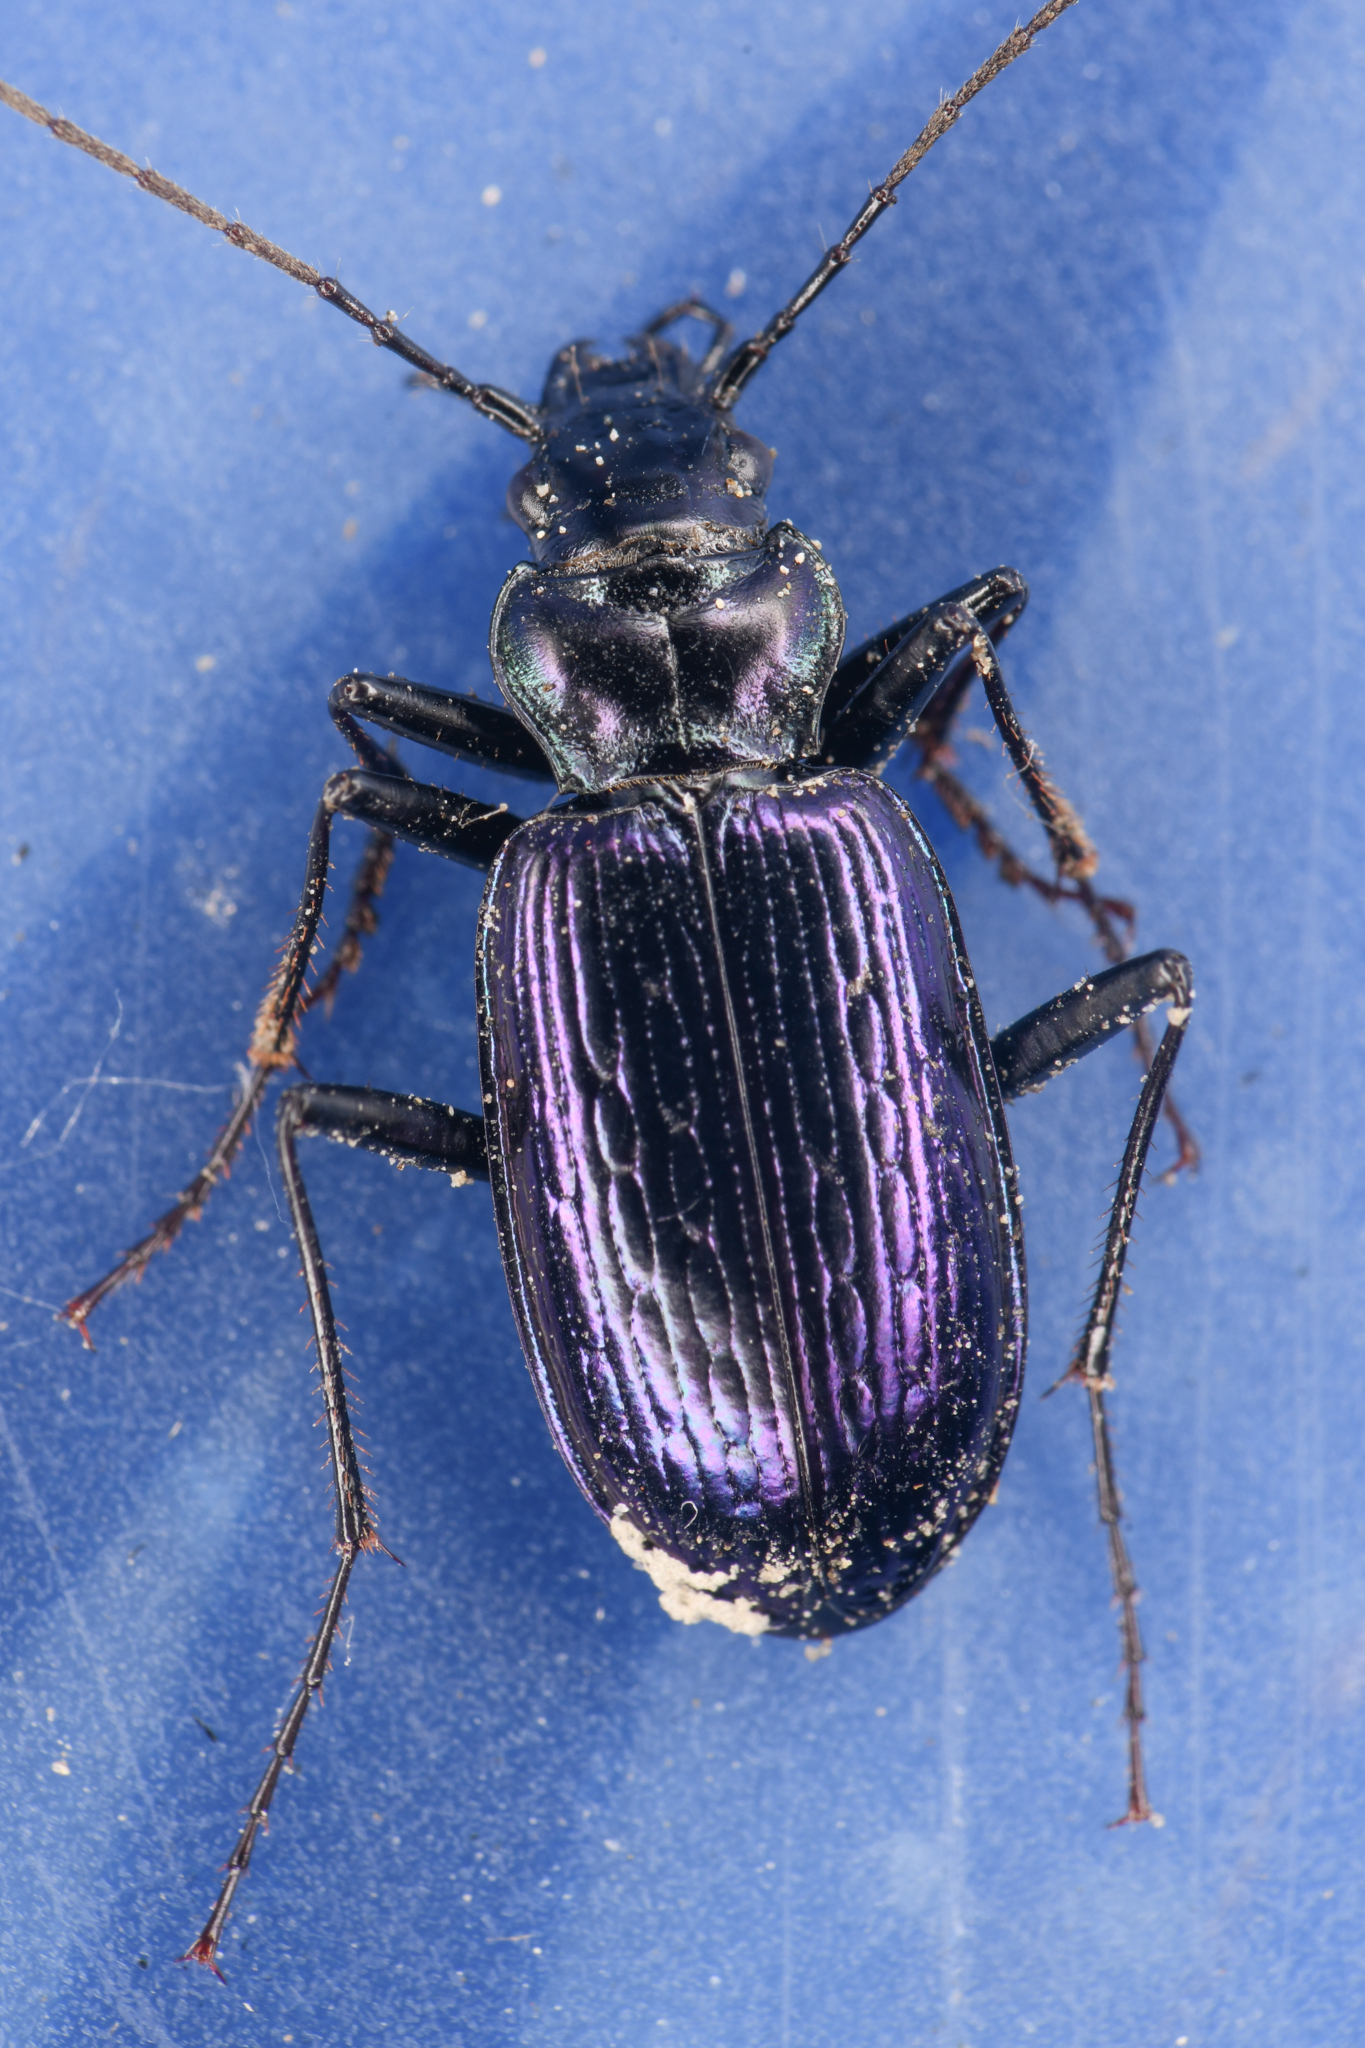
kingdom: Animalia
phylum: Arthropoda
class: Insecta
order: Coleoptera
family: Carabidae
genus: Nebria
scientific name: Nebria piperi
